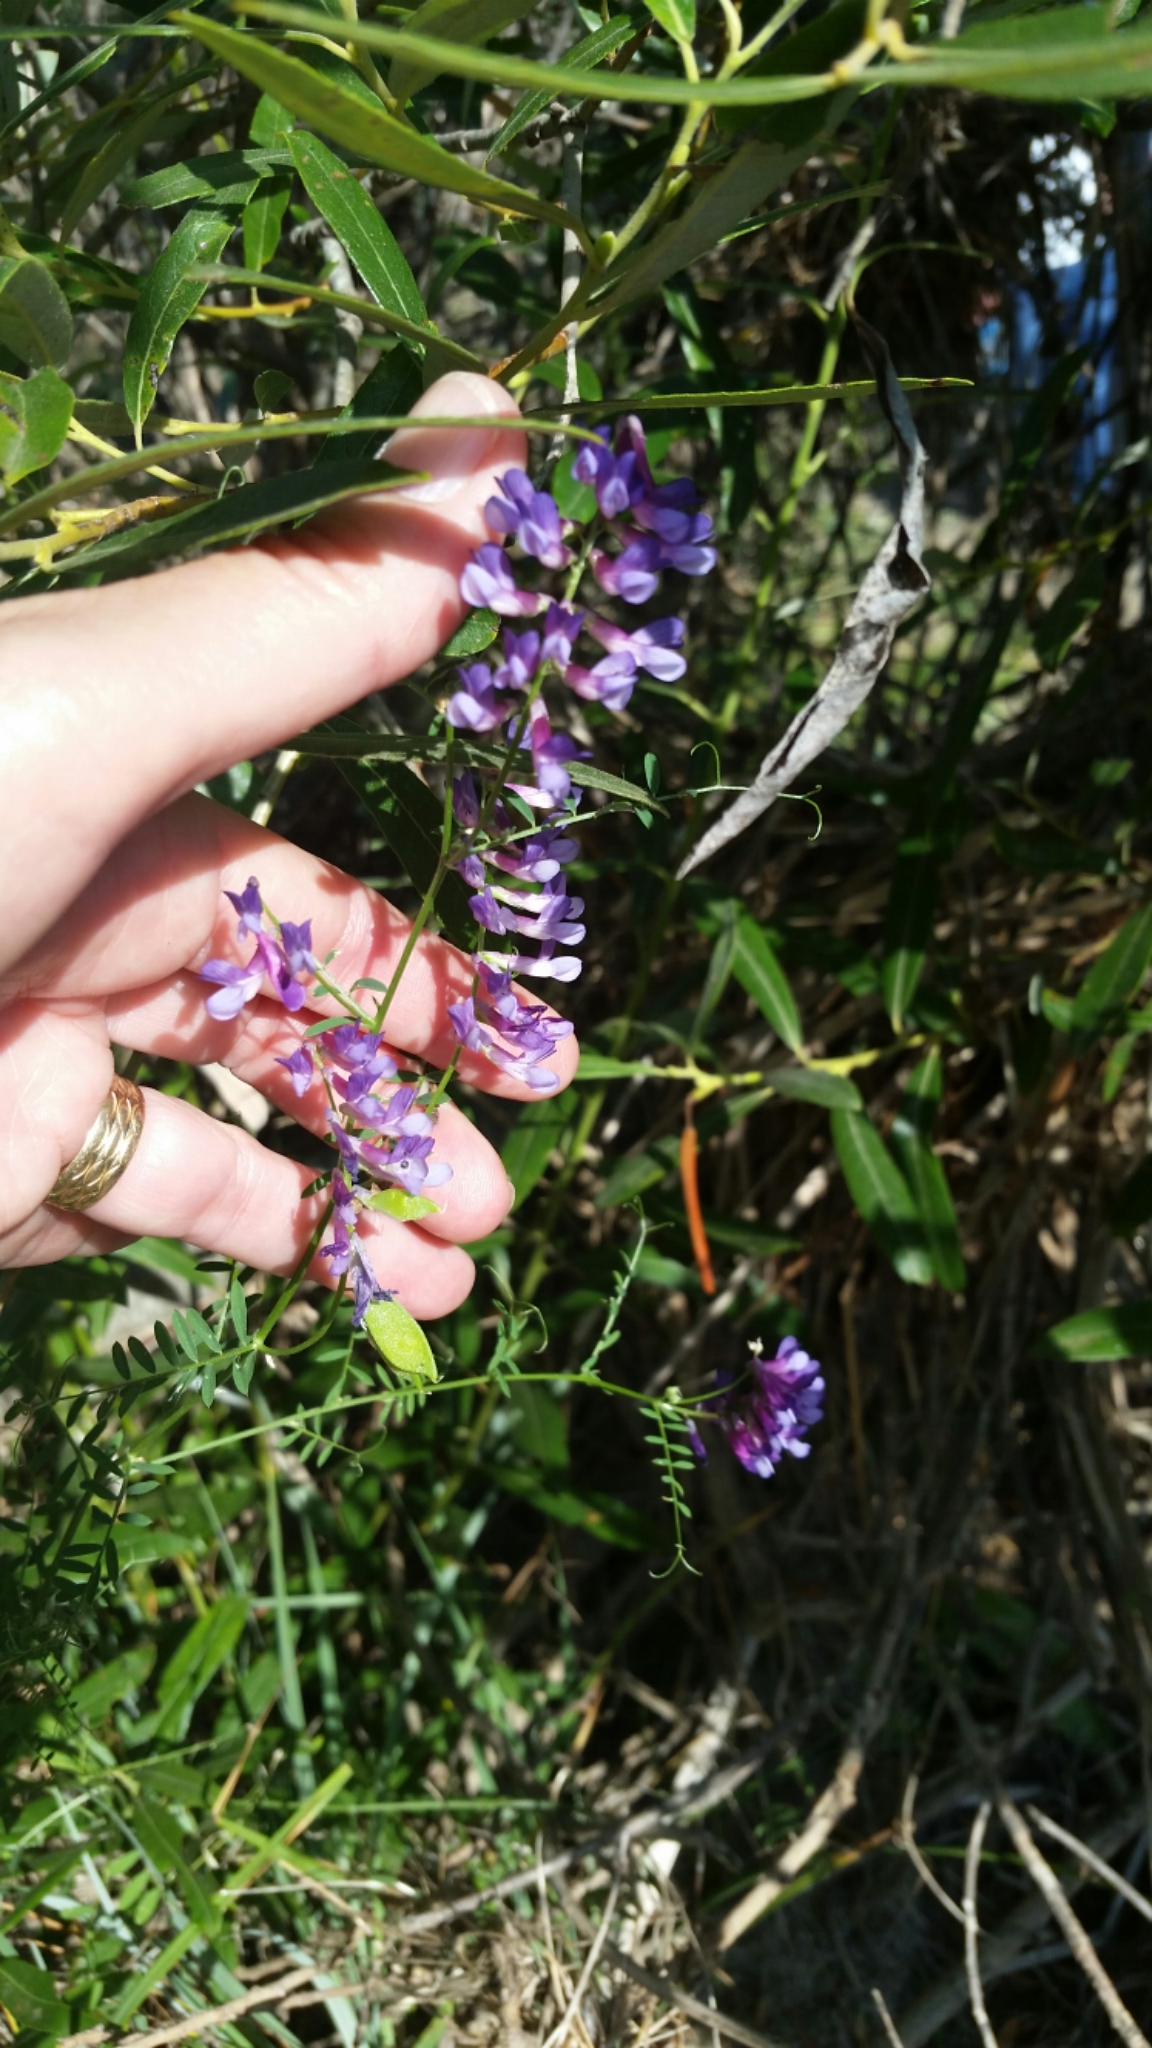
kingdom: Plantae
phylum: Tracheophyta
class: Magnoliopsida
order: Fabales
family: Fabaceae
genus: Vicia
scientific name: Vicia villosa
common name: Fodder vetch
